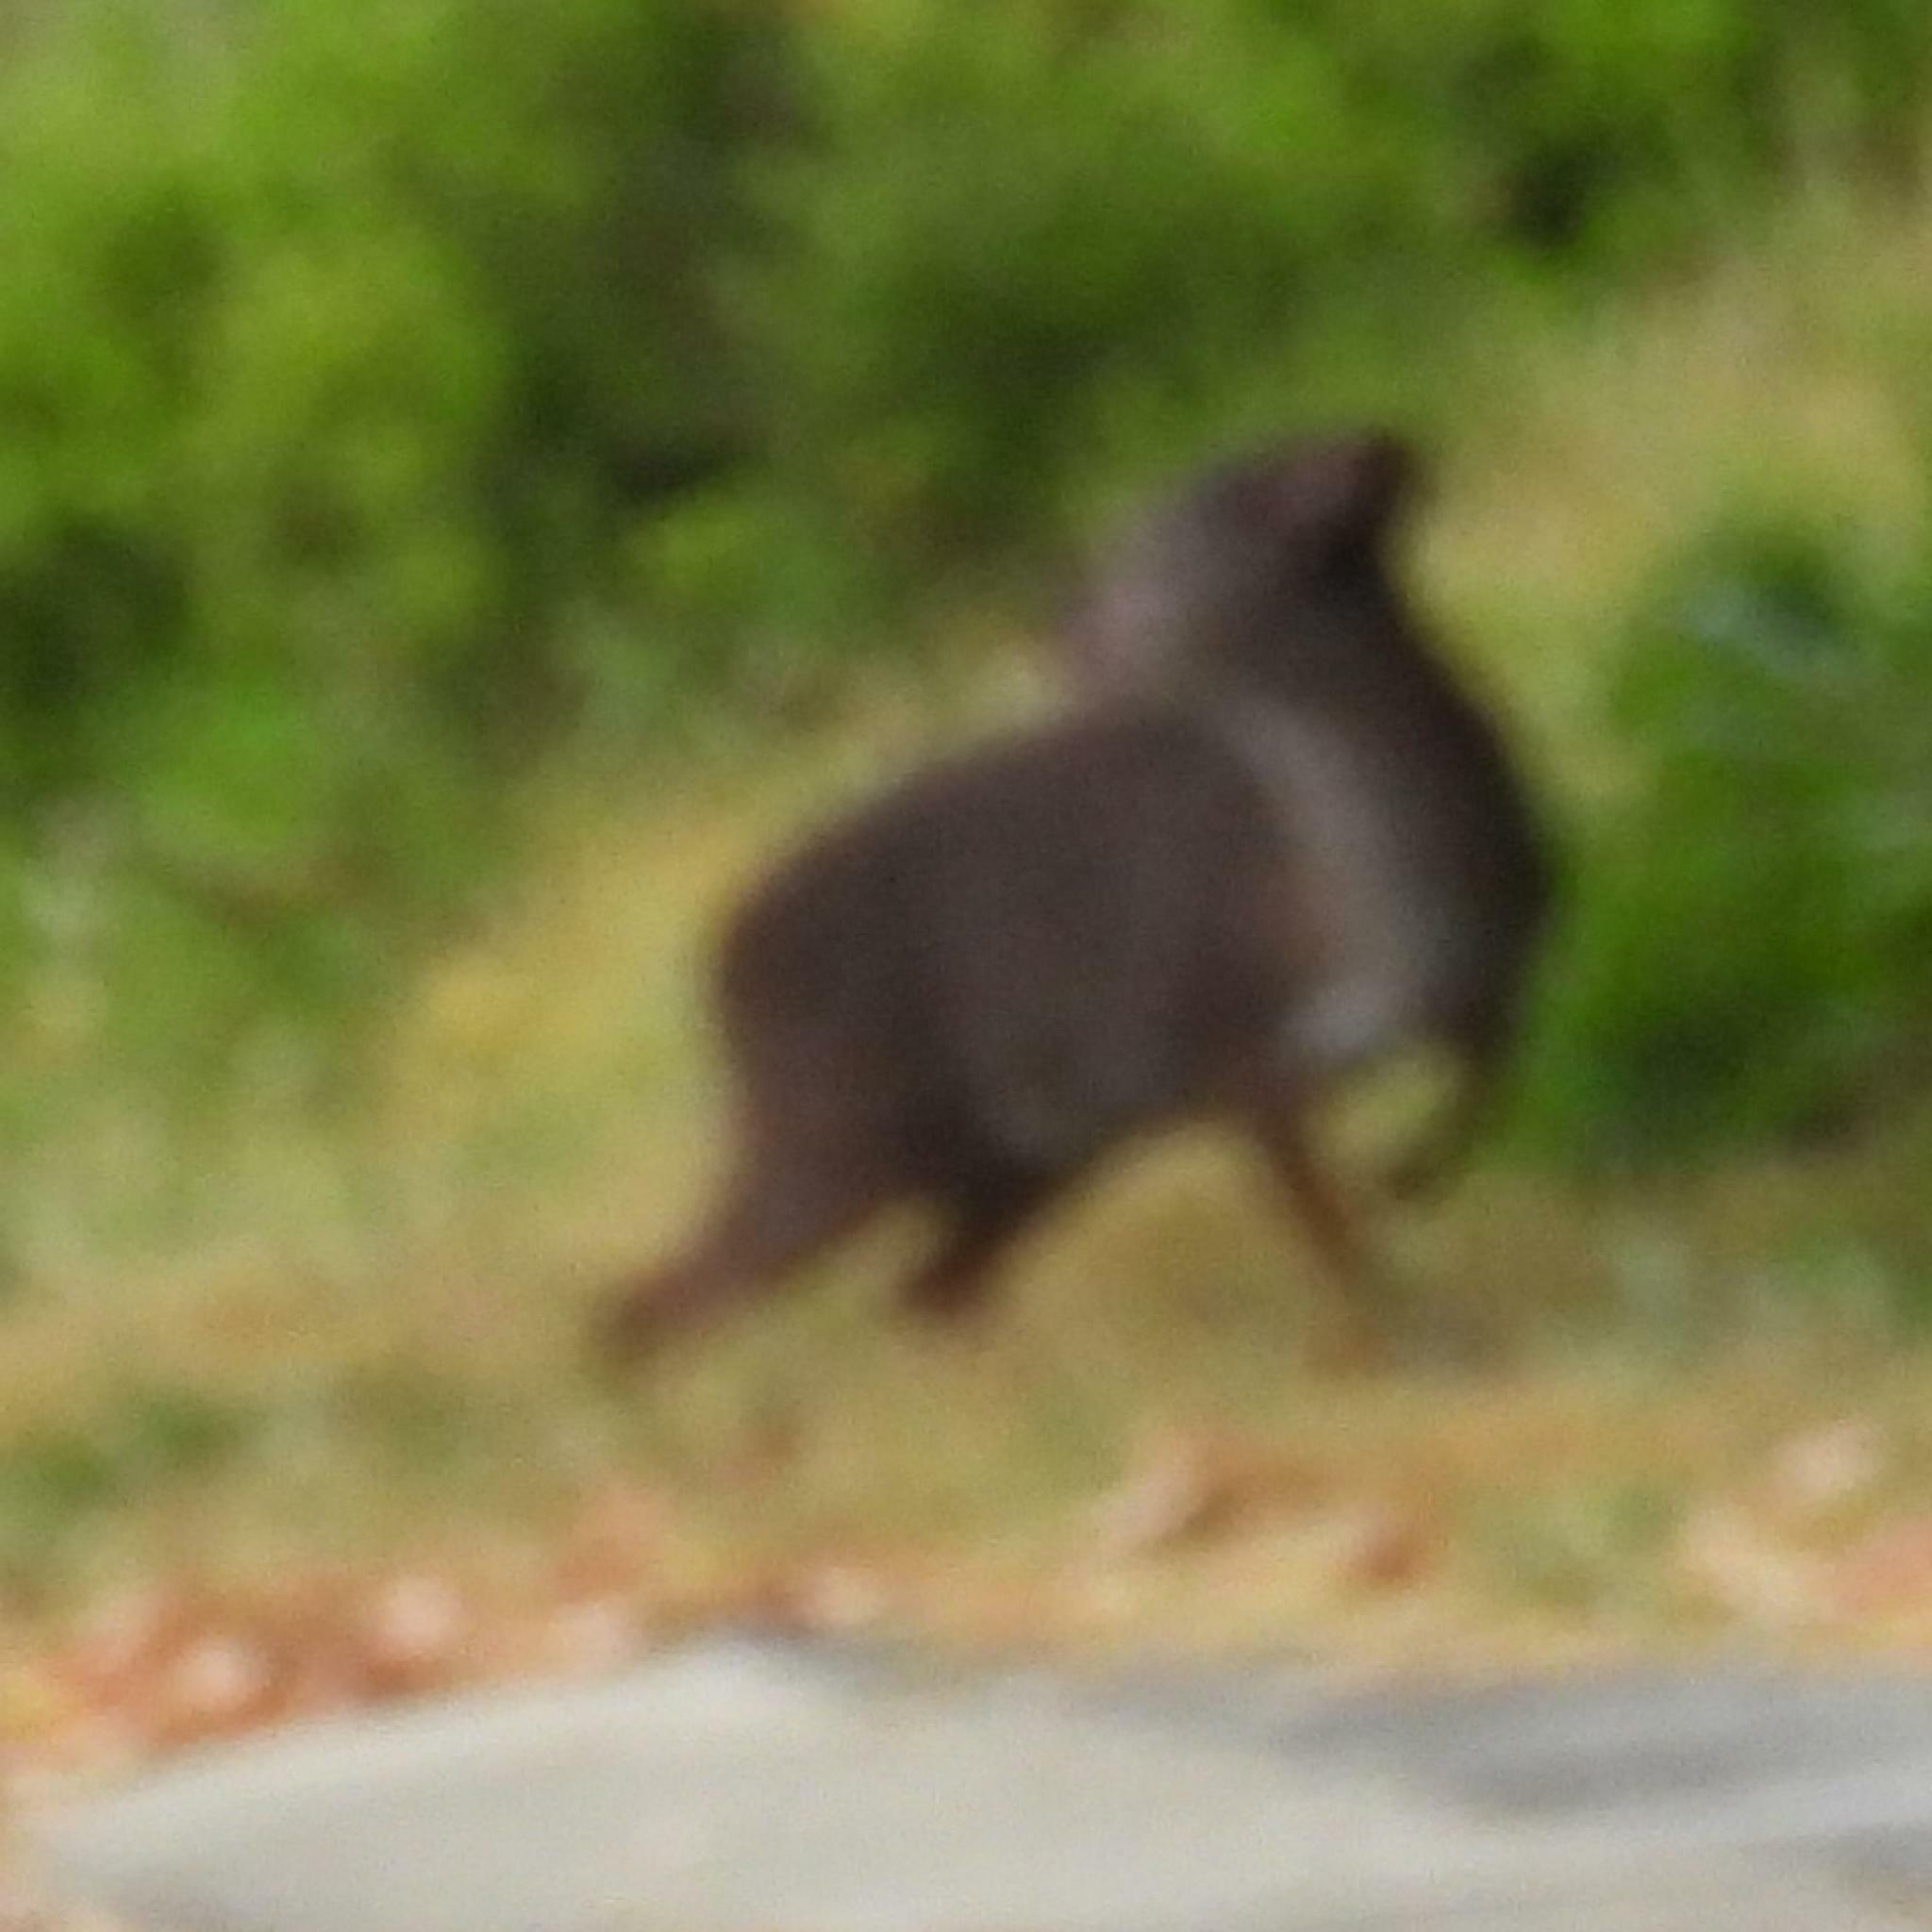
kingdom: Animalia
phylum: Chordata
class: Mammalia
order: Artiodactyla
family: Bovidae
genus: Philantomba
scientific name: Philantomba monticola
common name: Blue duiker
